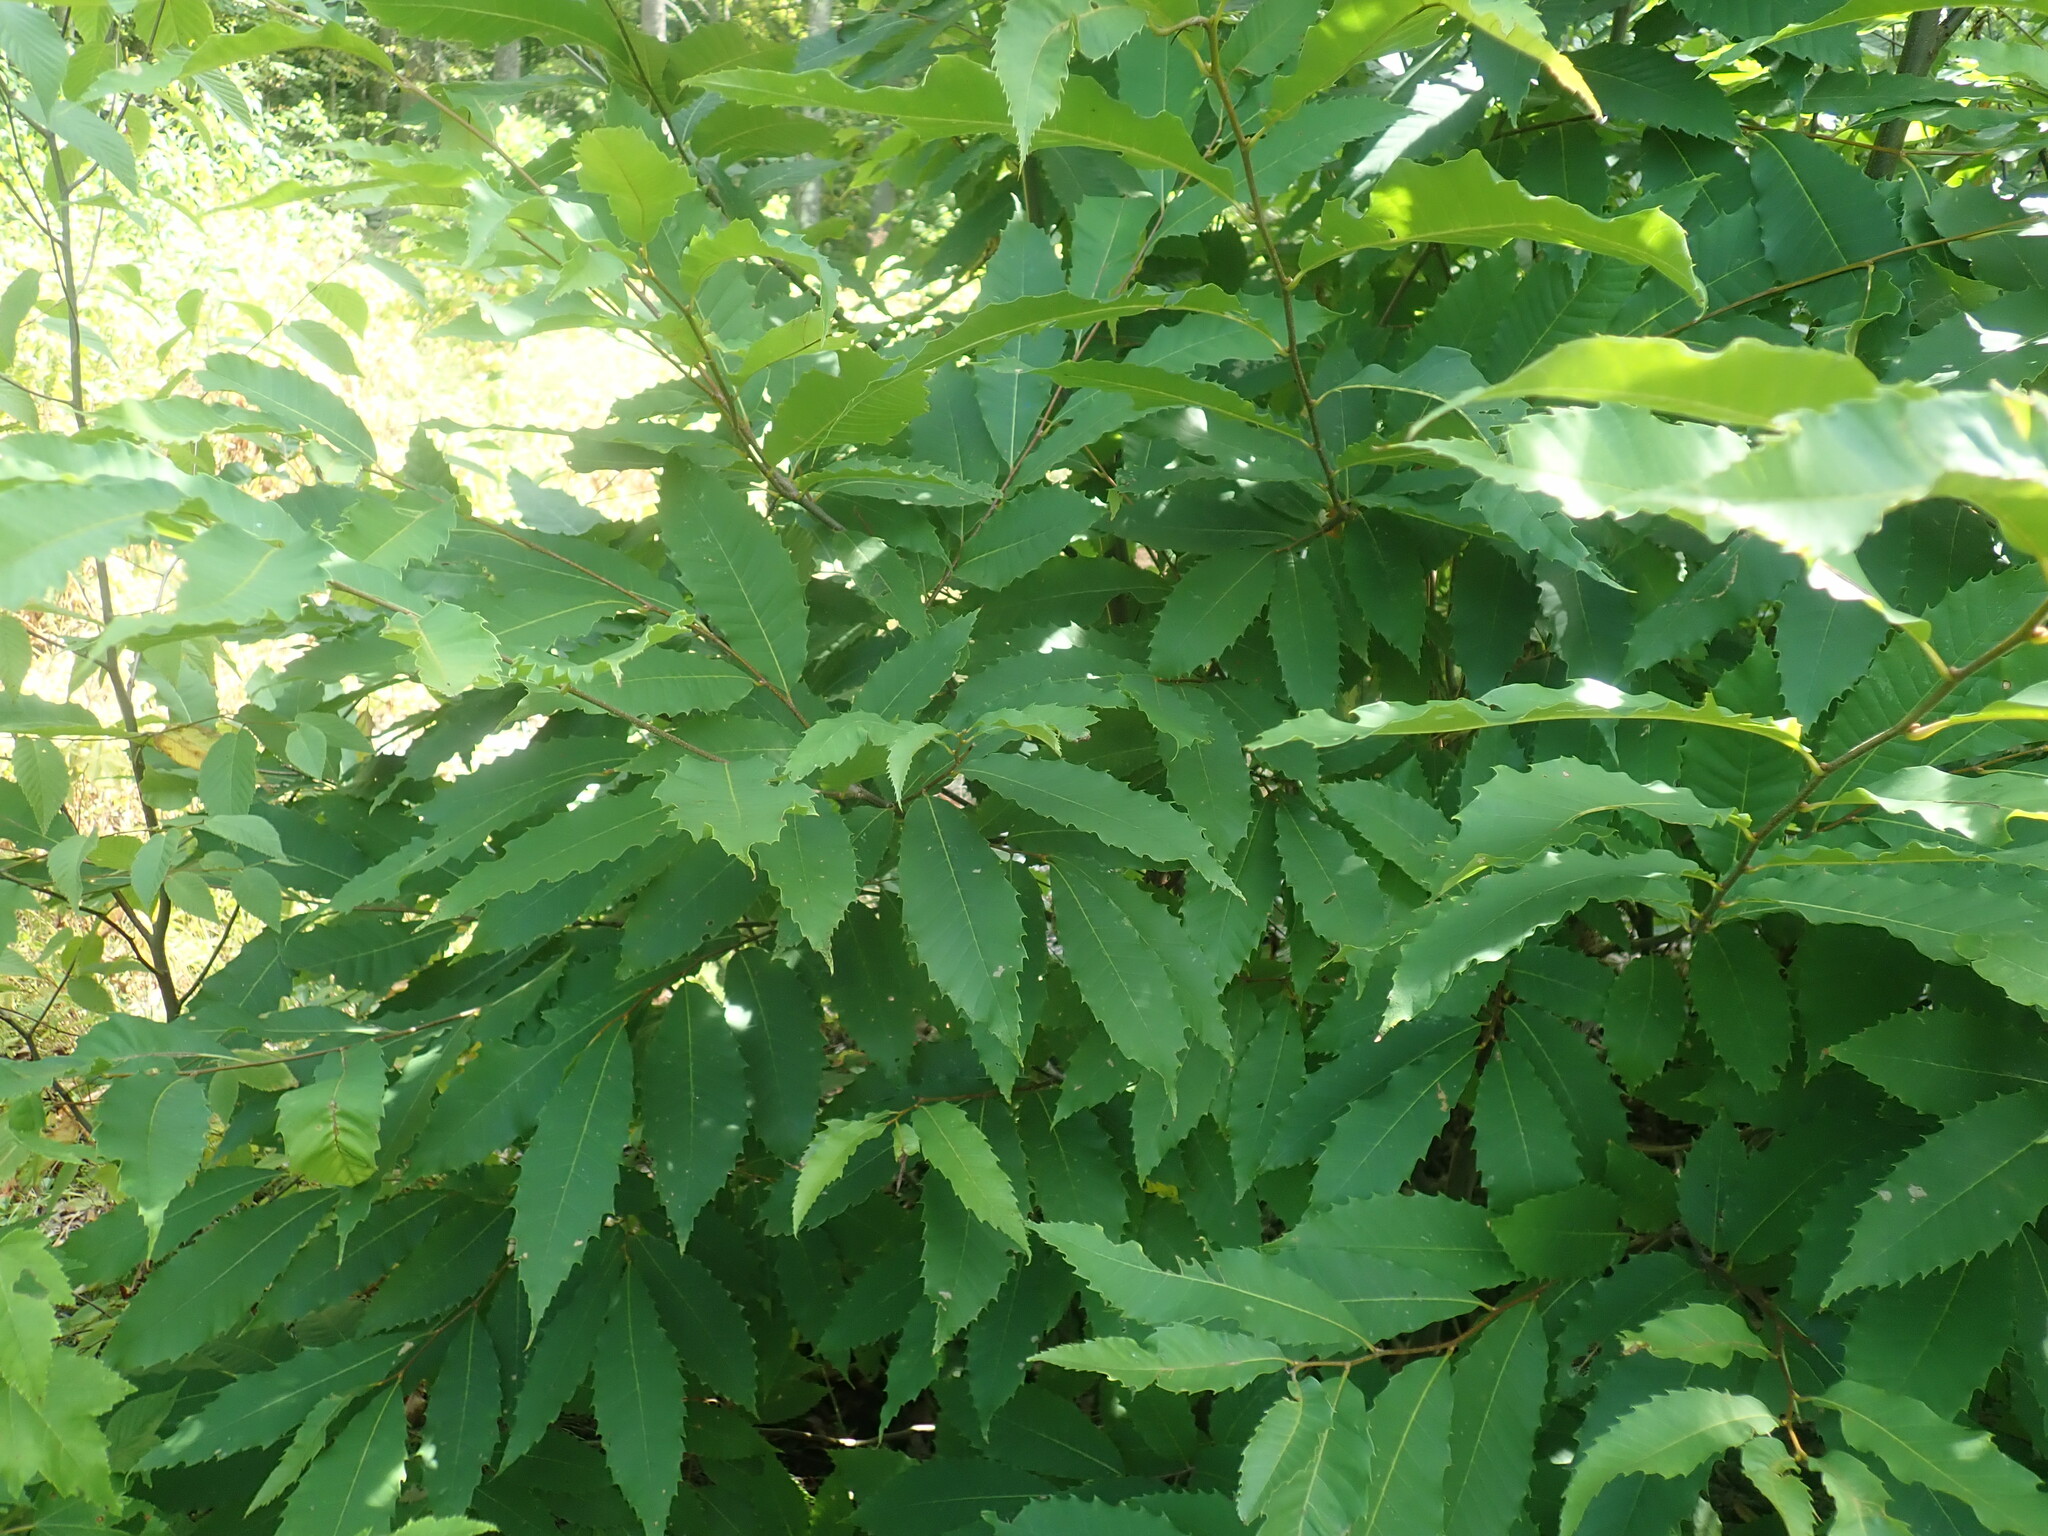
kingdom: Plantae
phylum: Tracheophyta
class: Magnoliopsida
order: Fagales
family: Fagaceae
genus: Castanea
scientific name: Castanea dentata
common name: American chestnut
